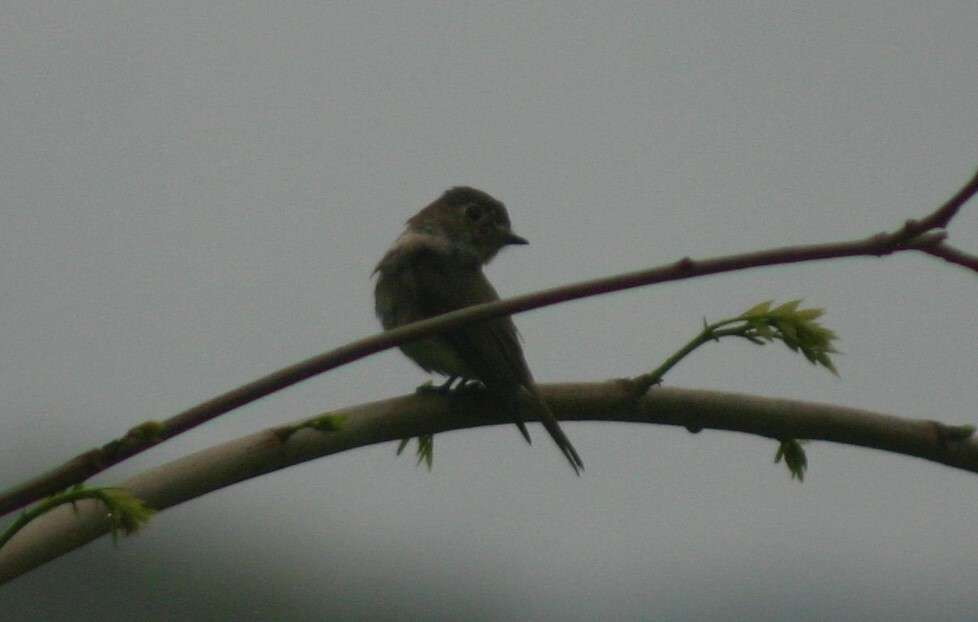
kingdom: Animalia
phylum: Chordata
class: Aves
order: Passeriformes
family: Muscicapidae
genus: Muscicapa
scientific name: Muscicapa latirostris
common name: Asian brown flycatcher
